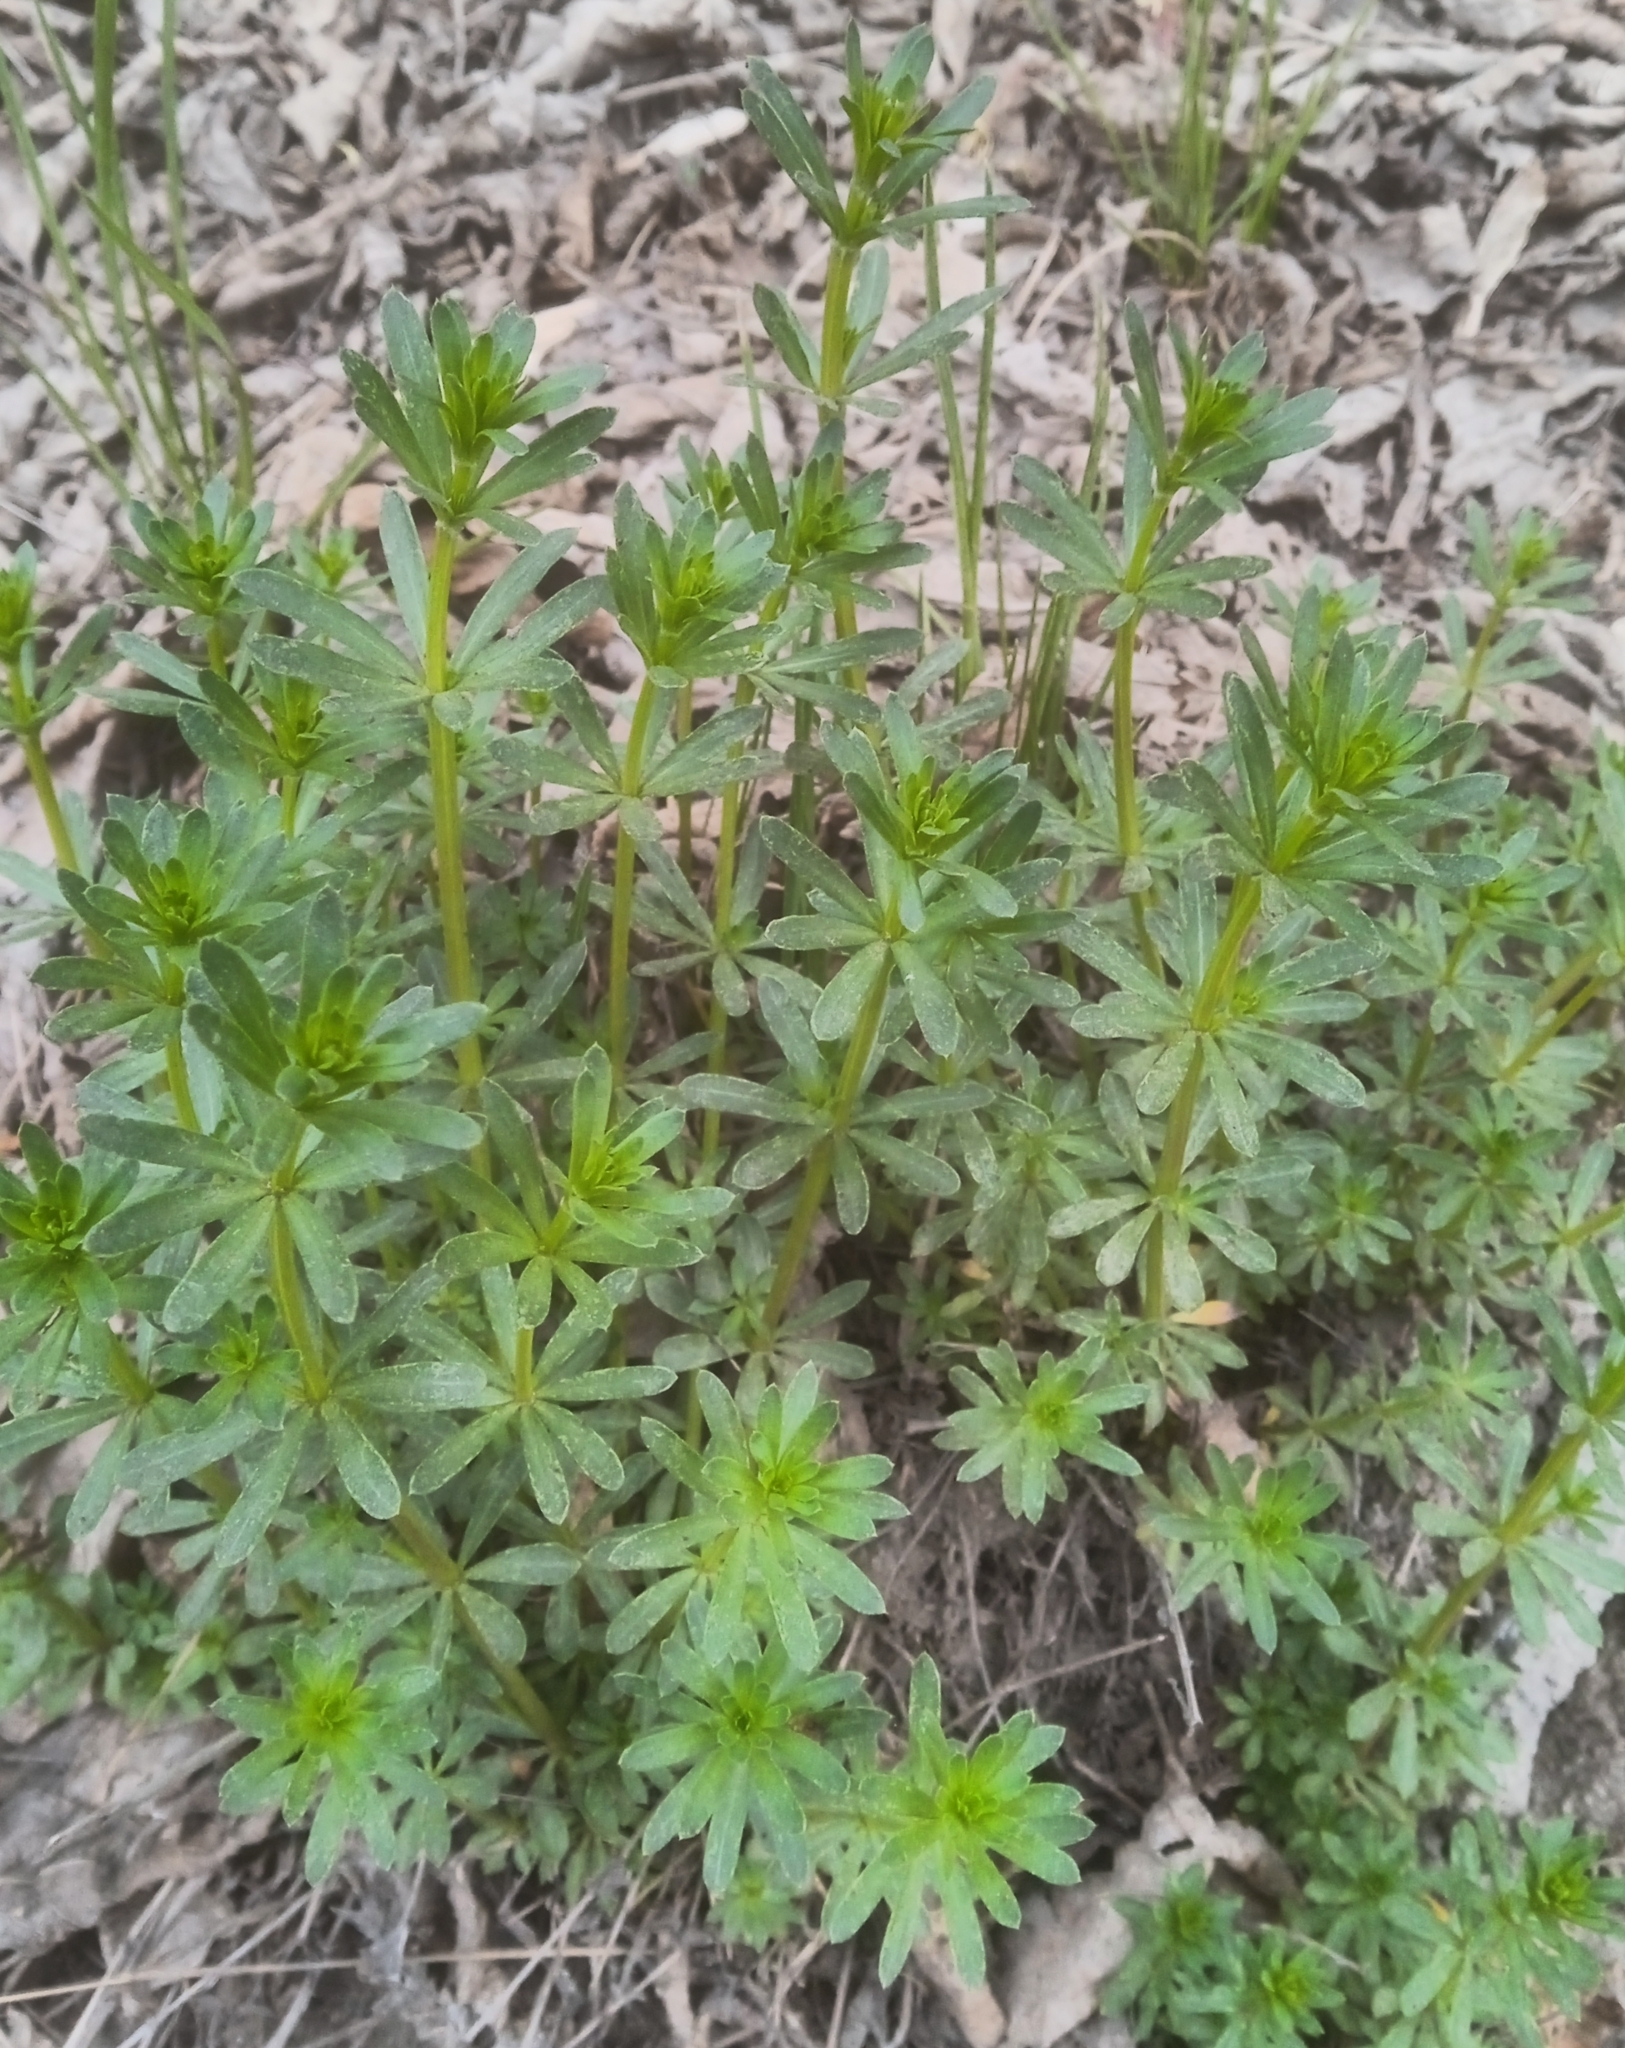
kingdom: Plantae
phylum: Tracheophyta
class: Magnoliopsida
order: Gentianales
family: Rubiaceae
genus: Galium
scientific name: Galium mollugo
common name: Hedge bedstraw
